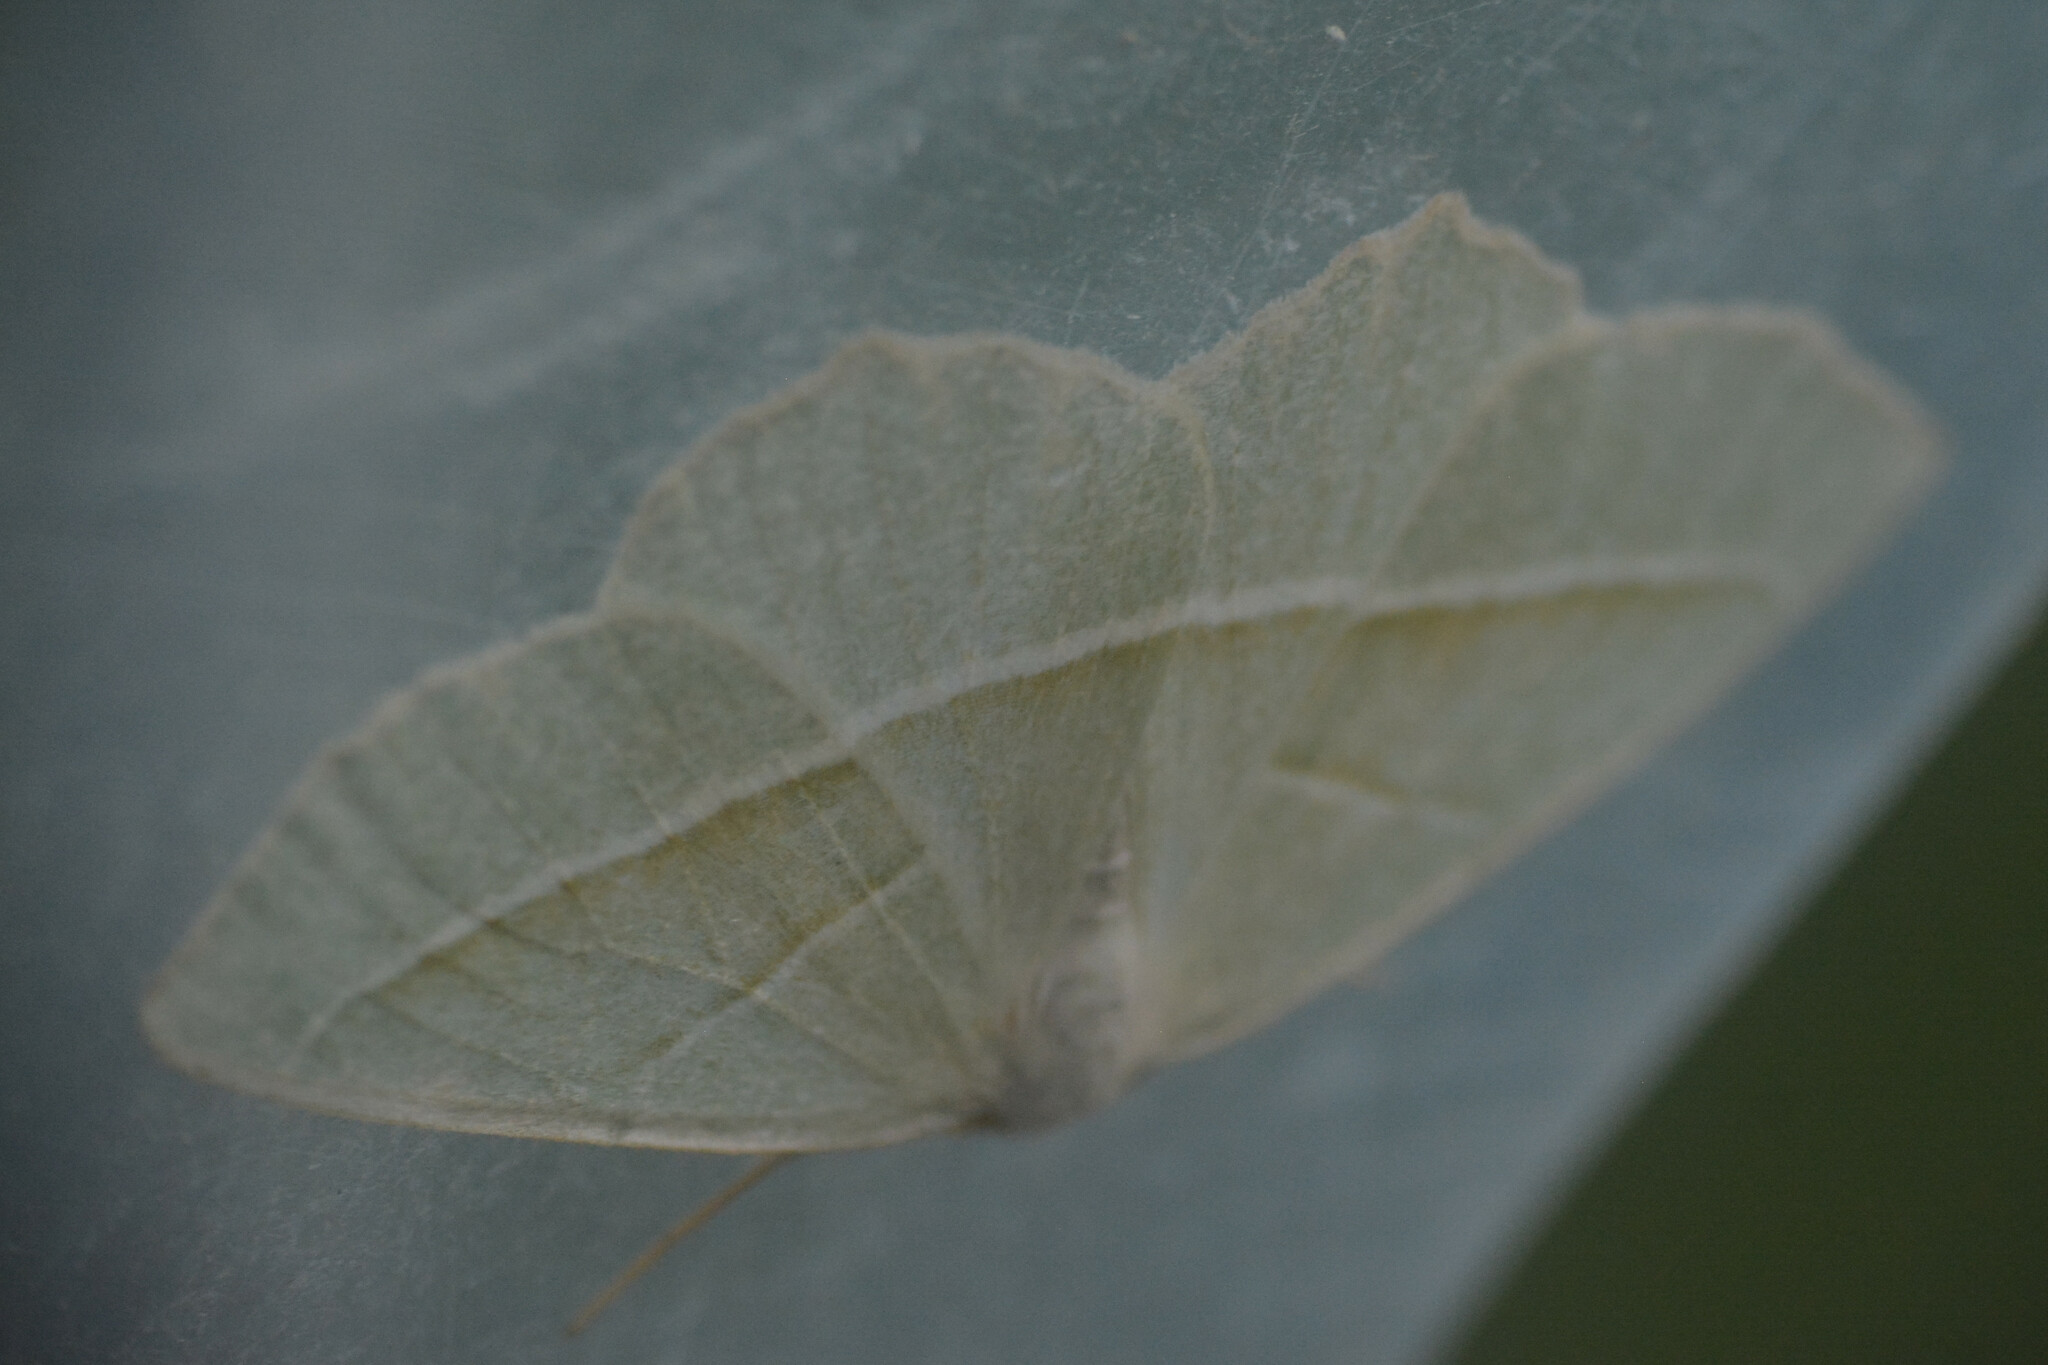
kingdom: Animalia
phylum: Arthropoda
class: Insecta
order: Lepidoptera
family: Geometridae
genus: Campaea
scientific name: Campaea margaritaria
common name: Light emerald
